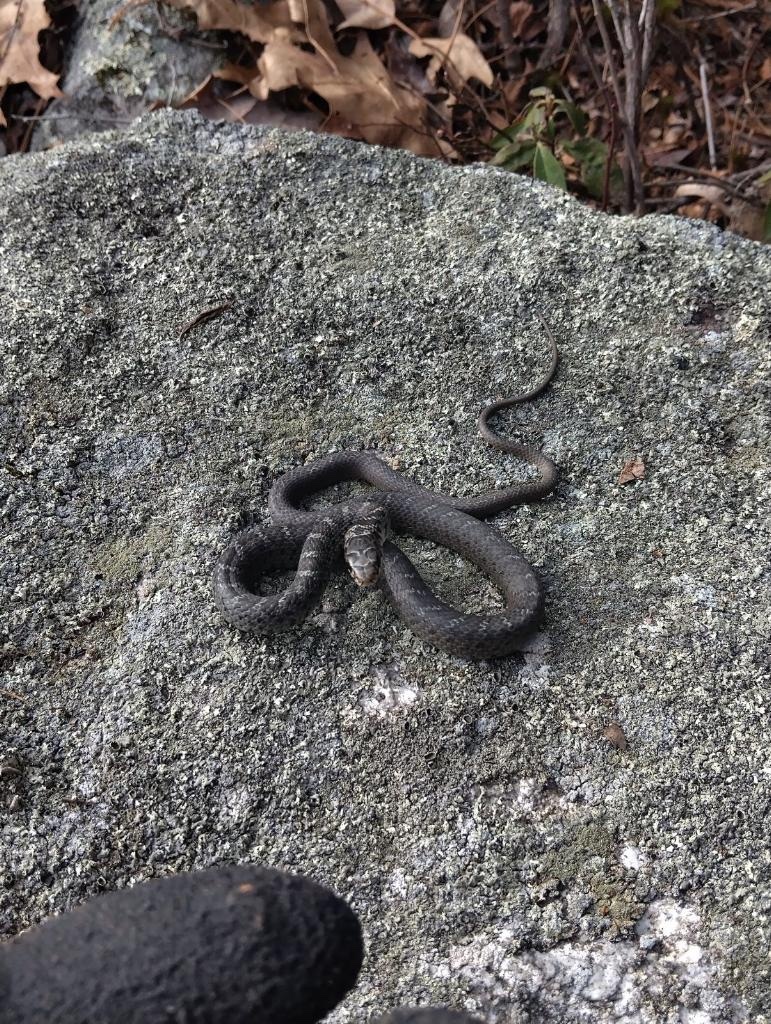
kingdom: Animalia
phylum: Chordata
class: Squamata
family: Colubridae
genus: Coluber
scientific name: Coluber constrictor
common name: Eastern racer
